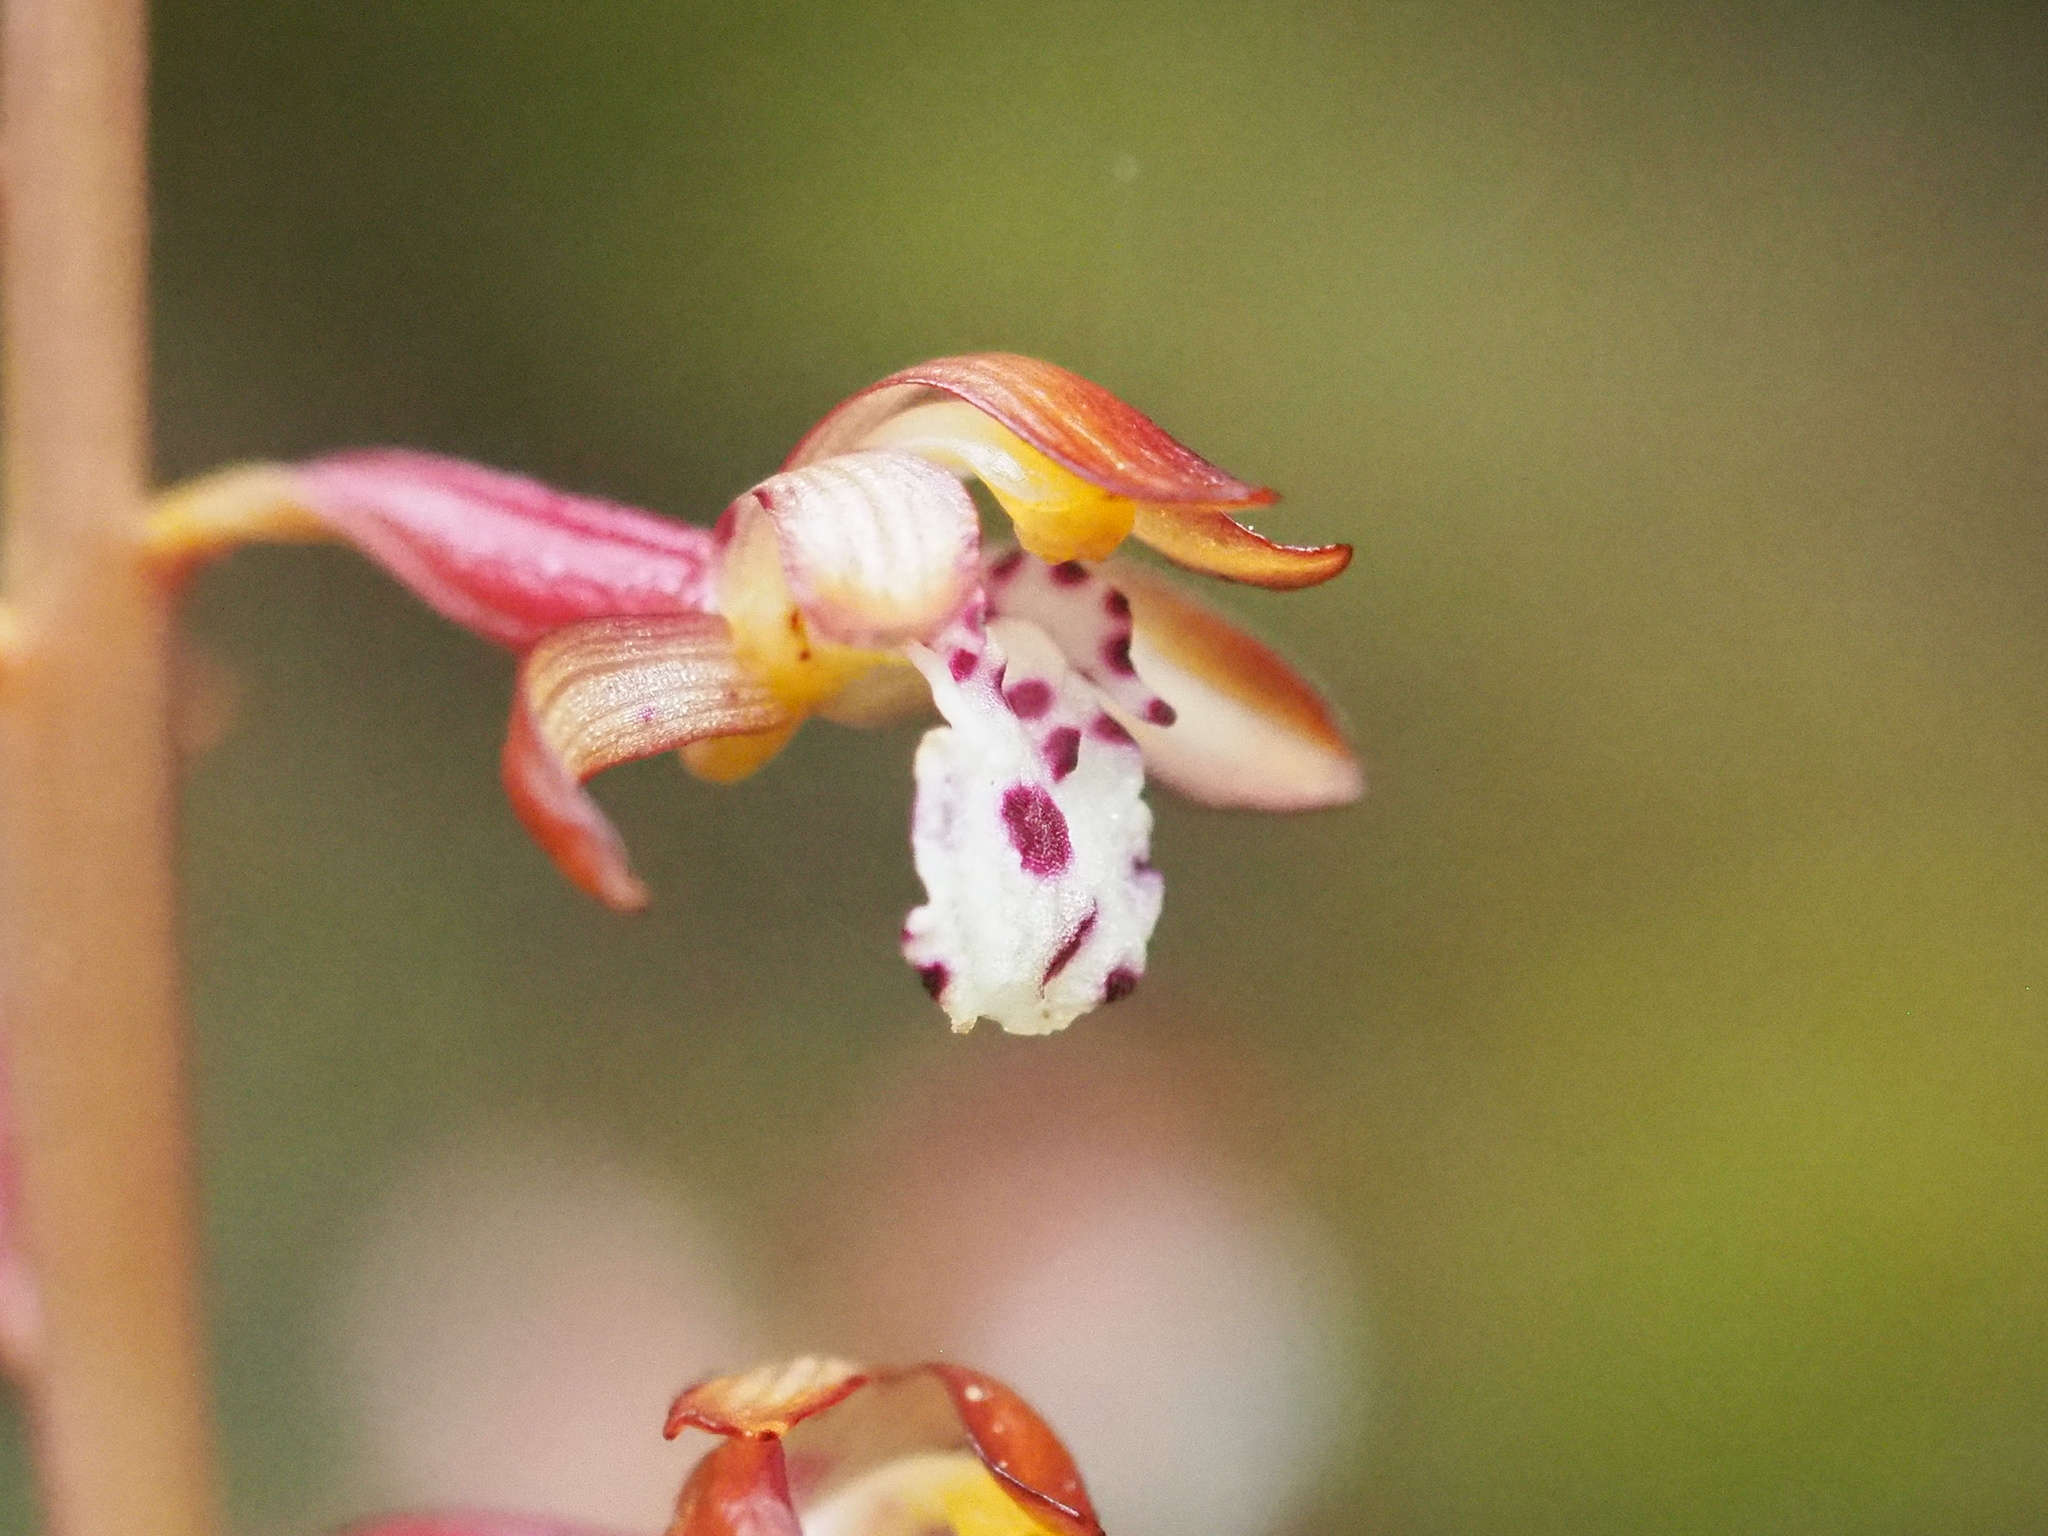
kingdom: Plantae
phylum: Tracheophyta
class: Liliopsida
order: Asparagales
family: Orchidaceae
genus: Corallorhiza
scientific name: Corallorhiza maculata
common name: Spotted coralroot
